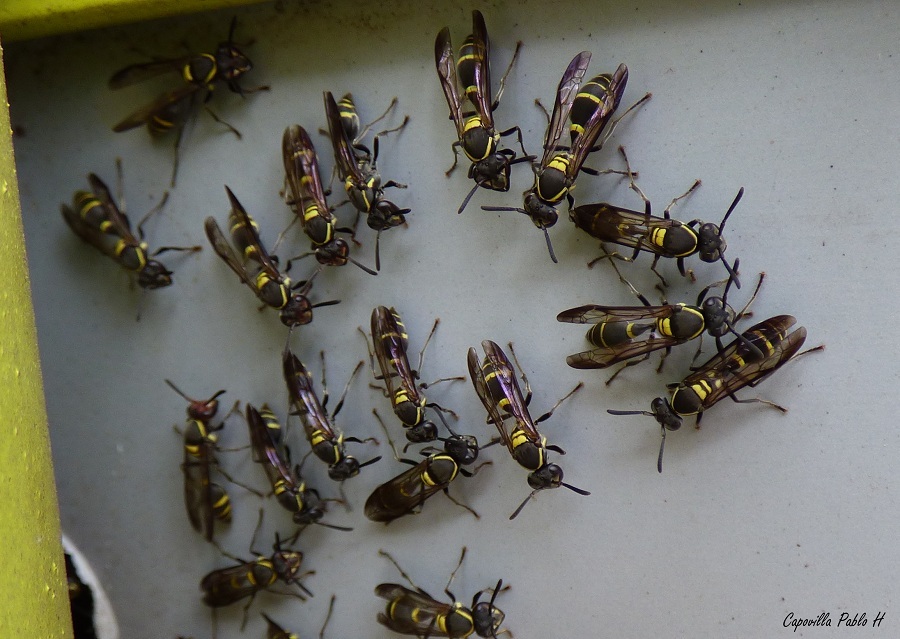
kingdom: Animalia
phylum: Arthropoda
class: Insecta
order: Hymenoptera
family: Eumenidae
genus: Polybia
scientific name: Polybia occidentalis
